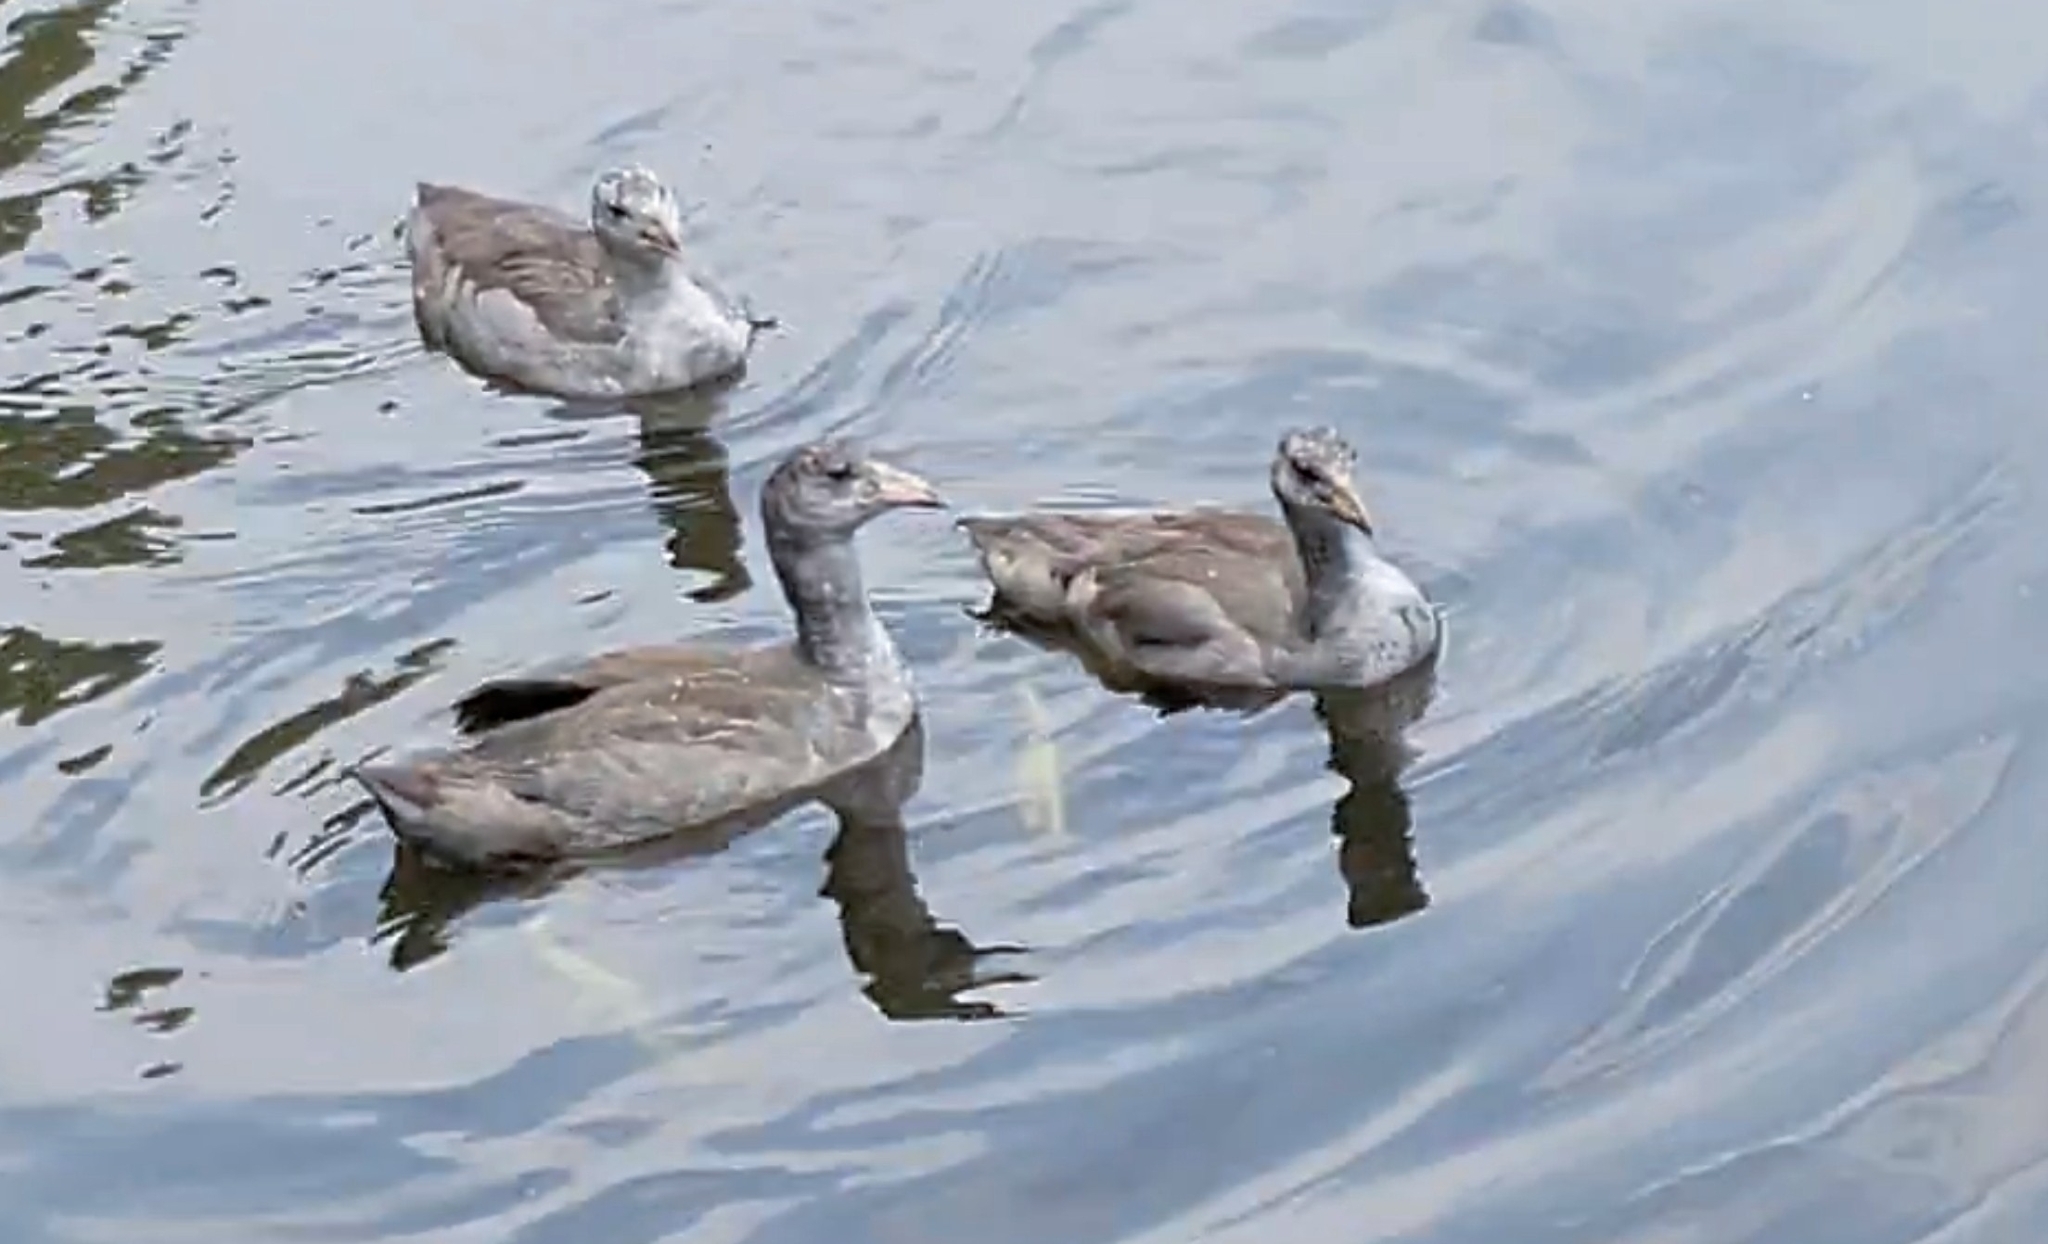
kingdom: Animalia
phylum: Chordata
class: Aves
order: Gruiformes
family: Rallidae
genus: Fulica
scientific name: Fulica americana
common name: American coot
